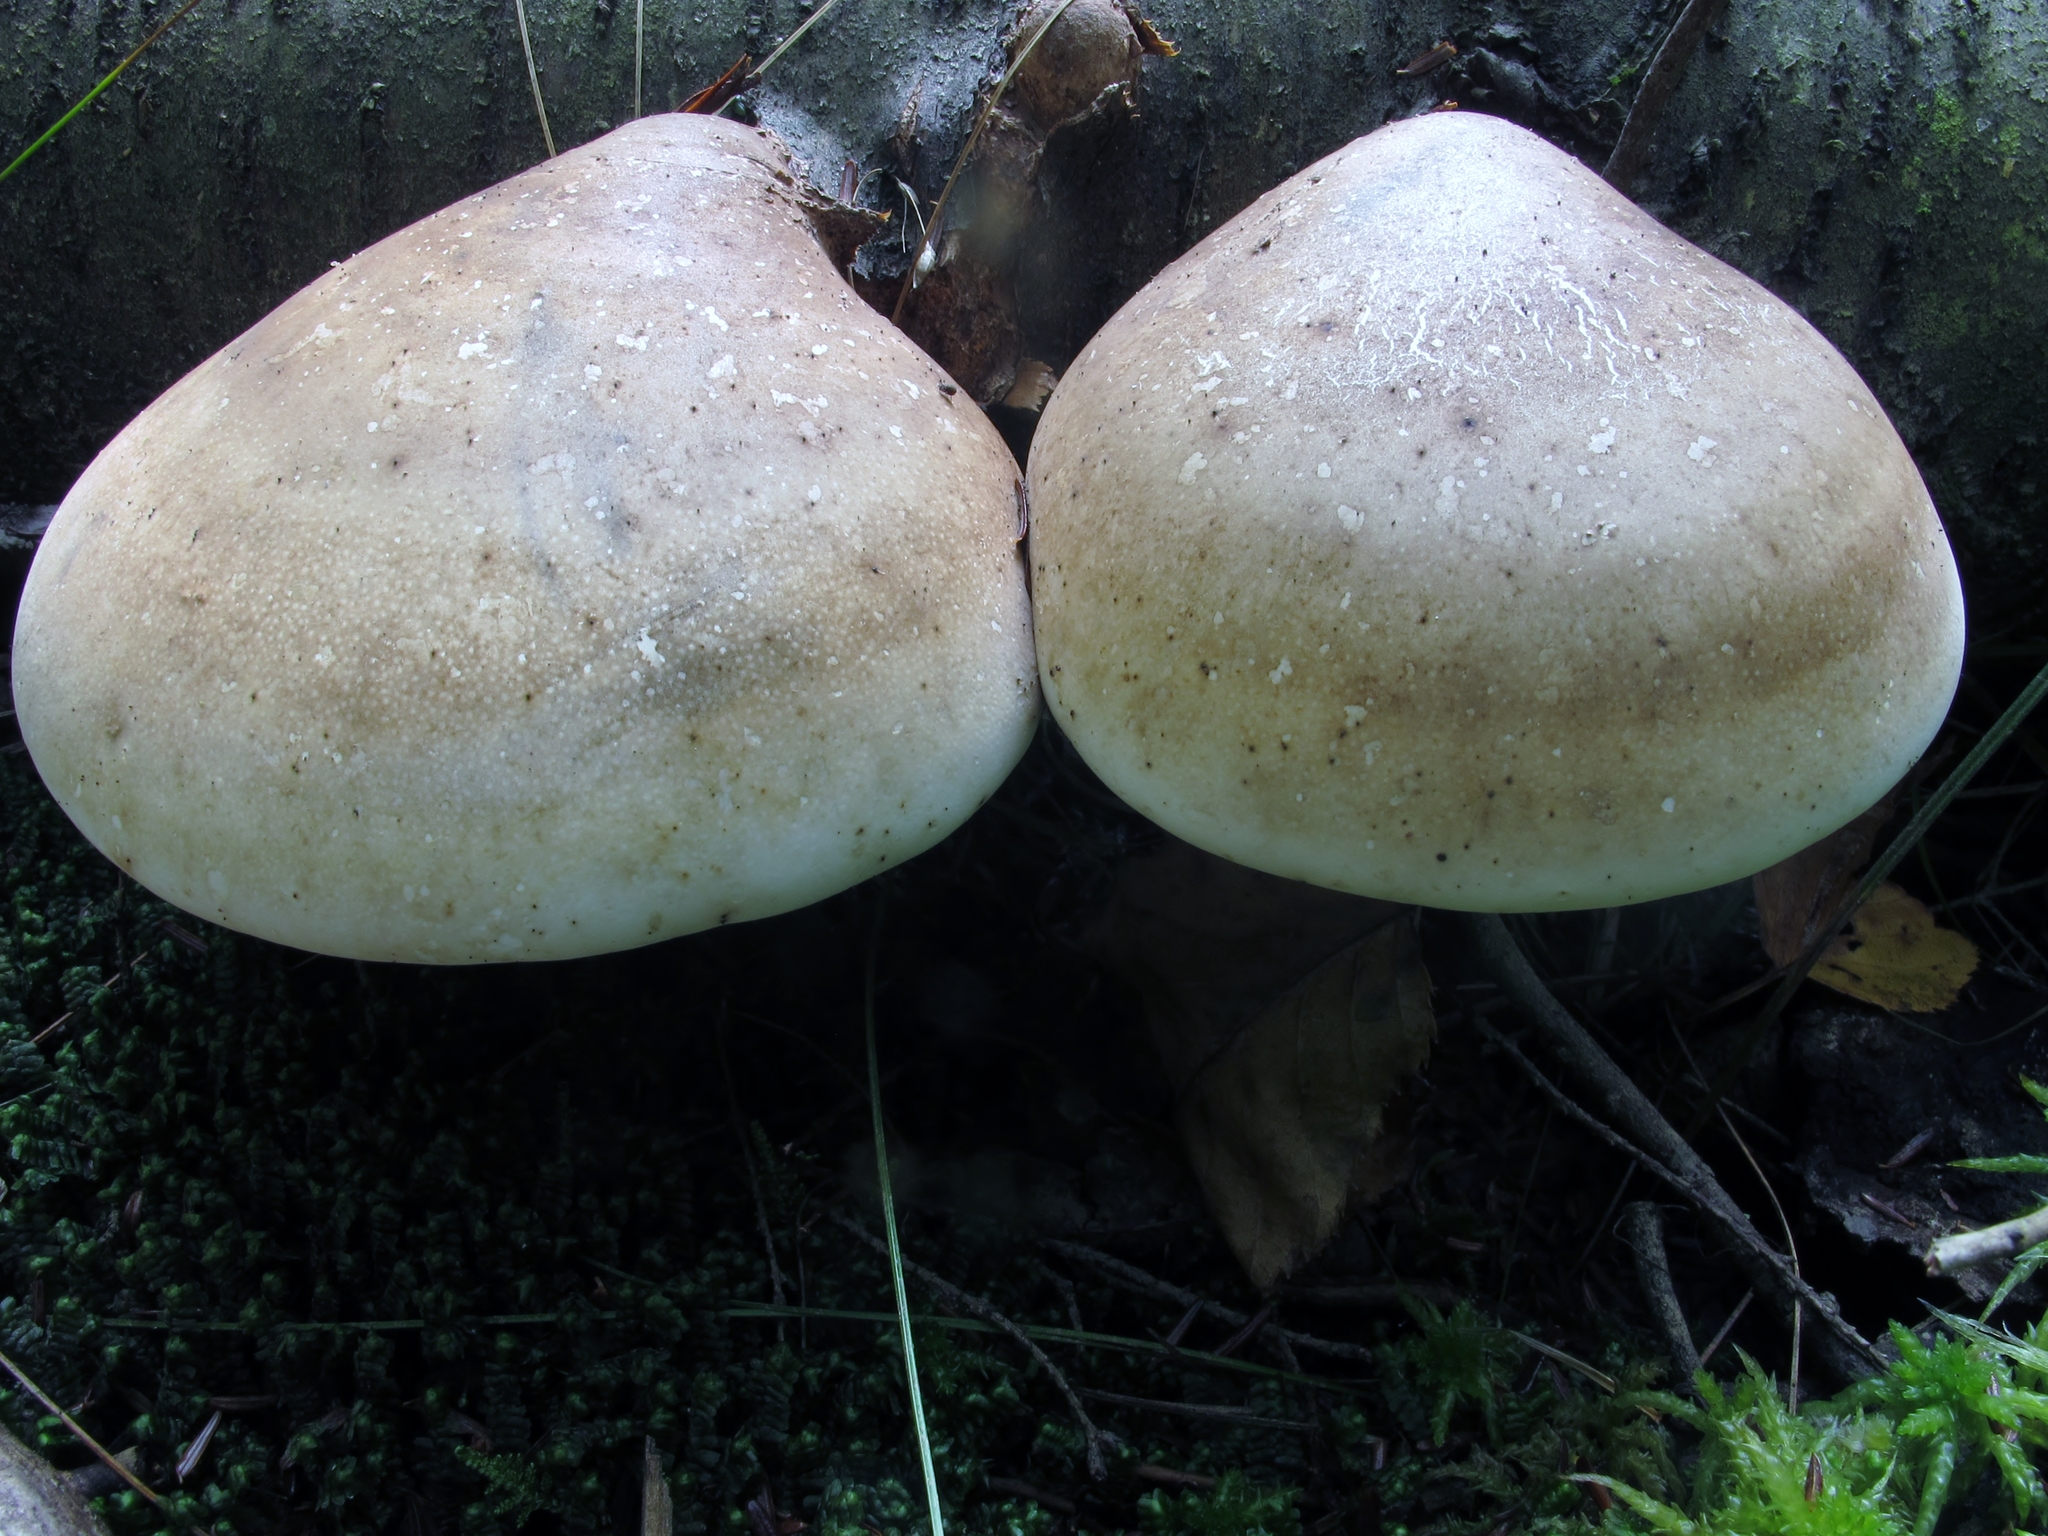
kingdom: Fungi
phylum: Basidiomycota
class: Agaricomycetes
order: Polyporales
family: Fomitopsidaceae
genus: Fomitopsis
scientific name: Fomitopsis betulina
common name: Birch polypore
